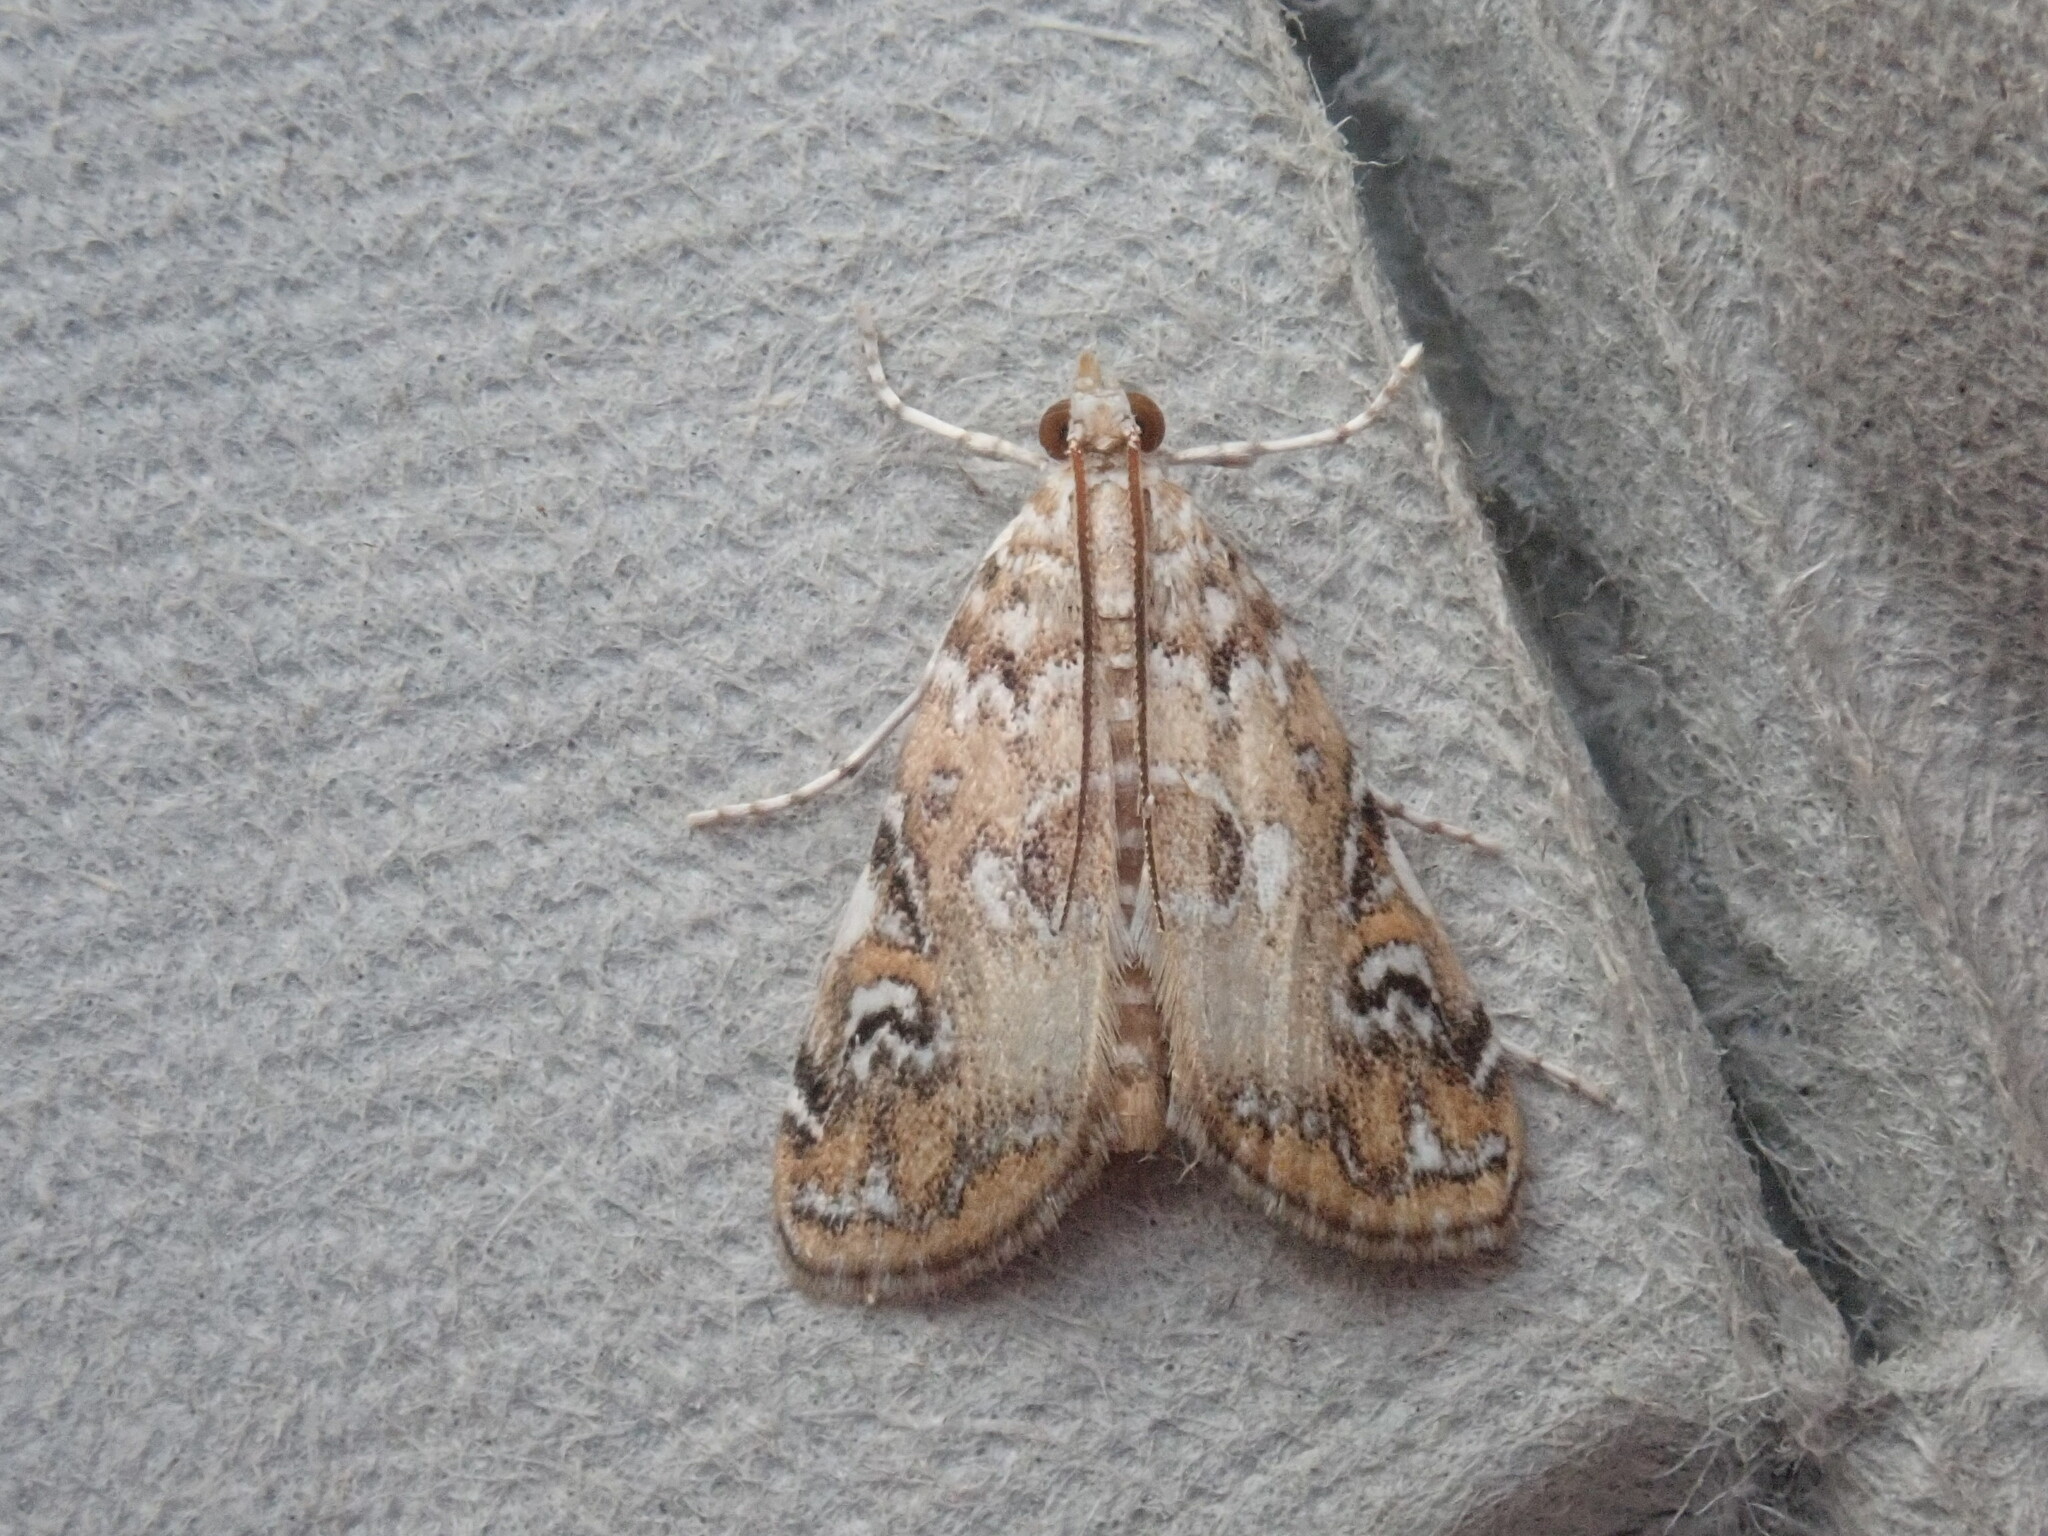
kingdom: Animalia
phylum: Arthropoda
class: Insecta
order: Lepidoptera
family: Crambidae
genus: Elophila
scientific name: Elophila gyralis
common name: Waterlily borer moth
